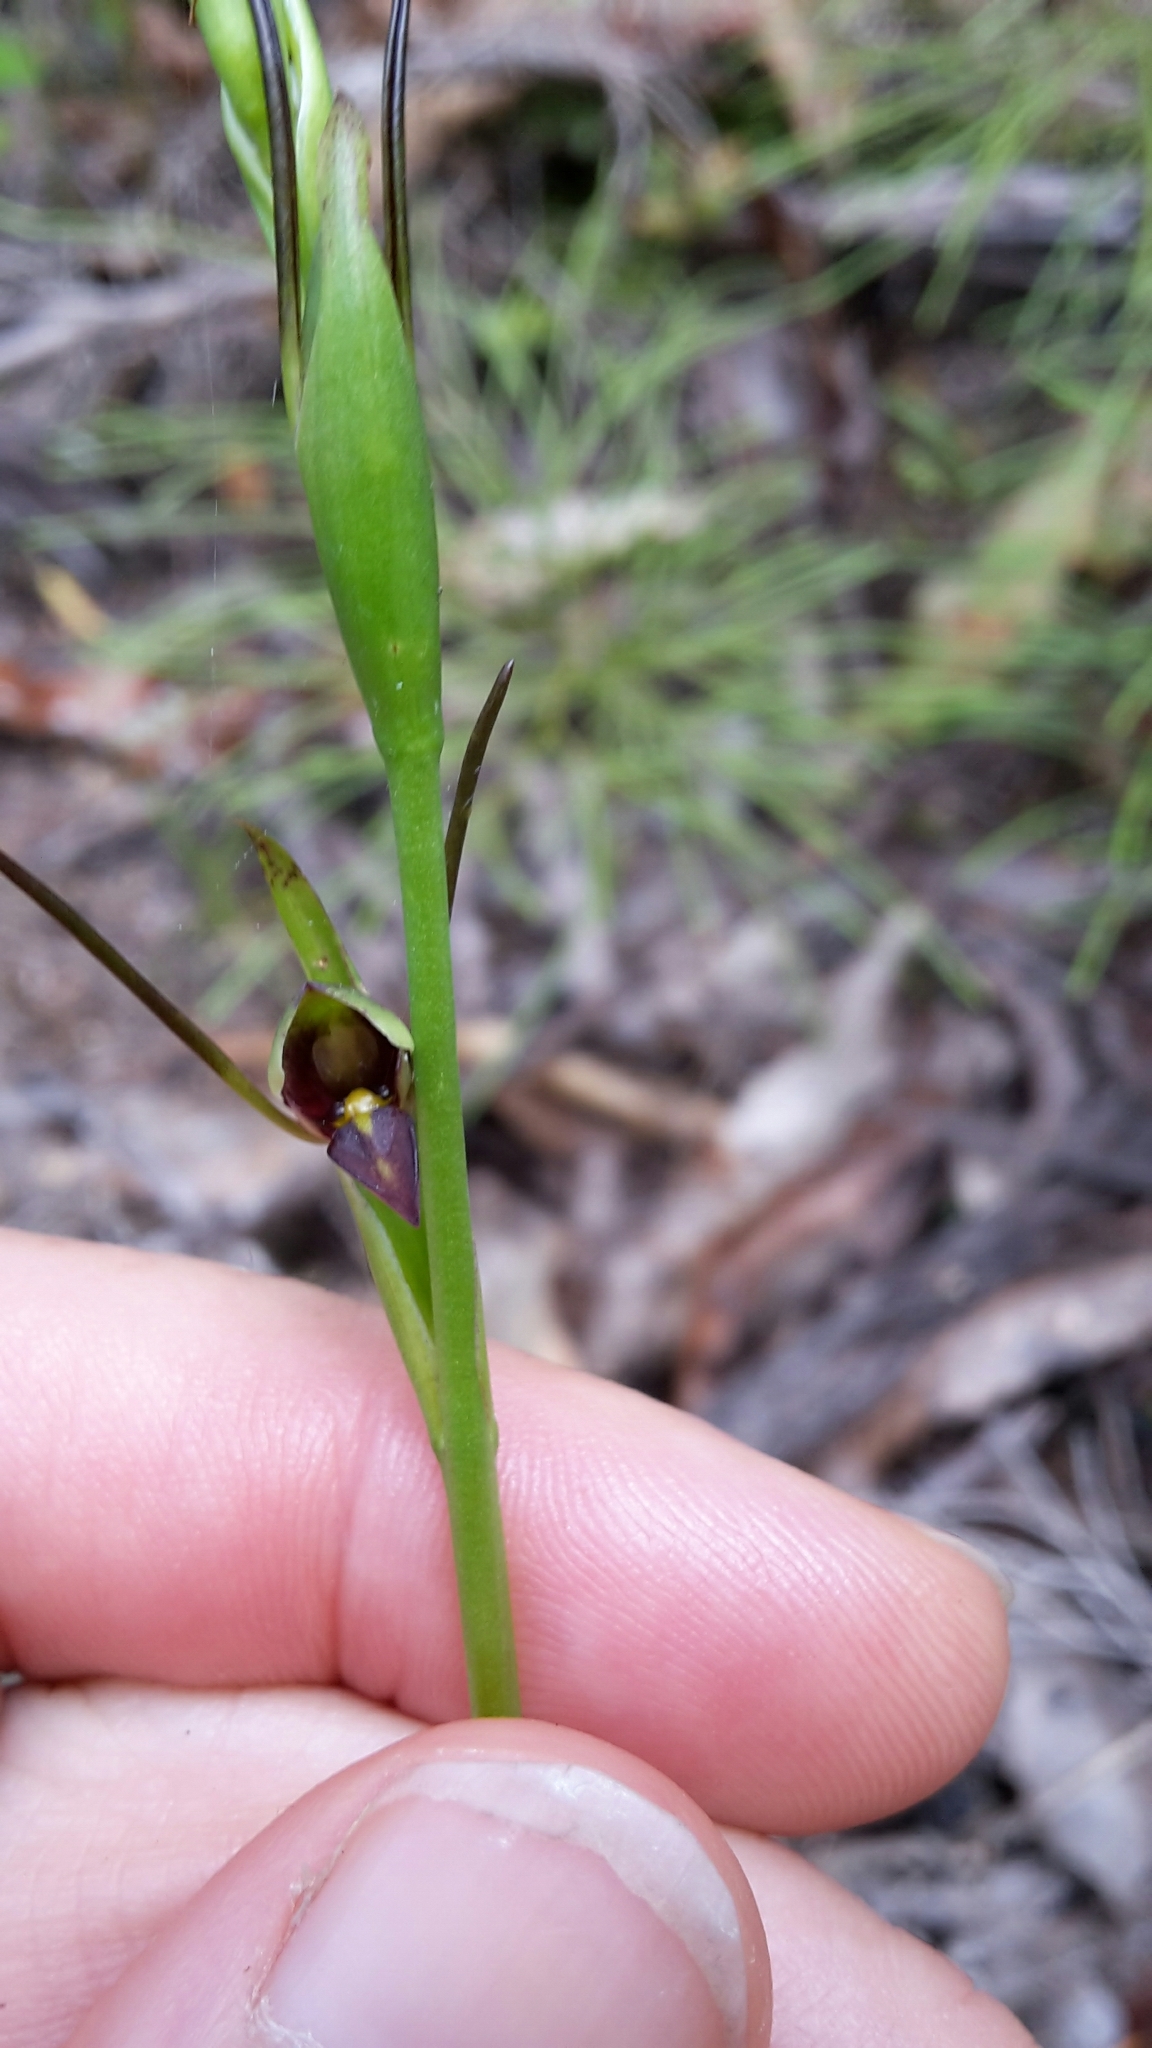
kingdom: Plantae
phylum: Tracheophyta
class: Liliopsida
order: Asparagales
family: Orchidaceae
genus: Orthoceras
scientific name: Orthoceras novae-zeelandiae
